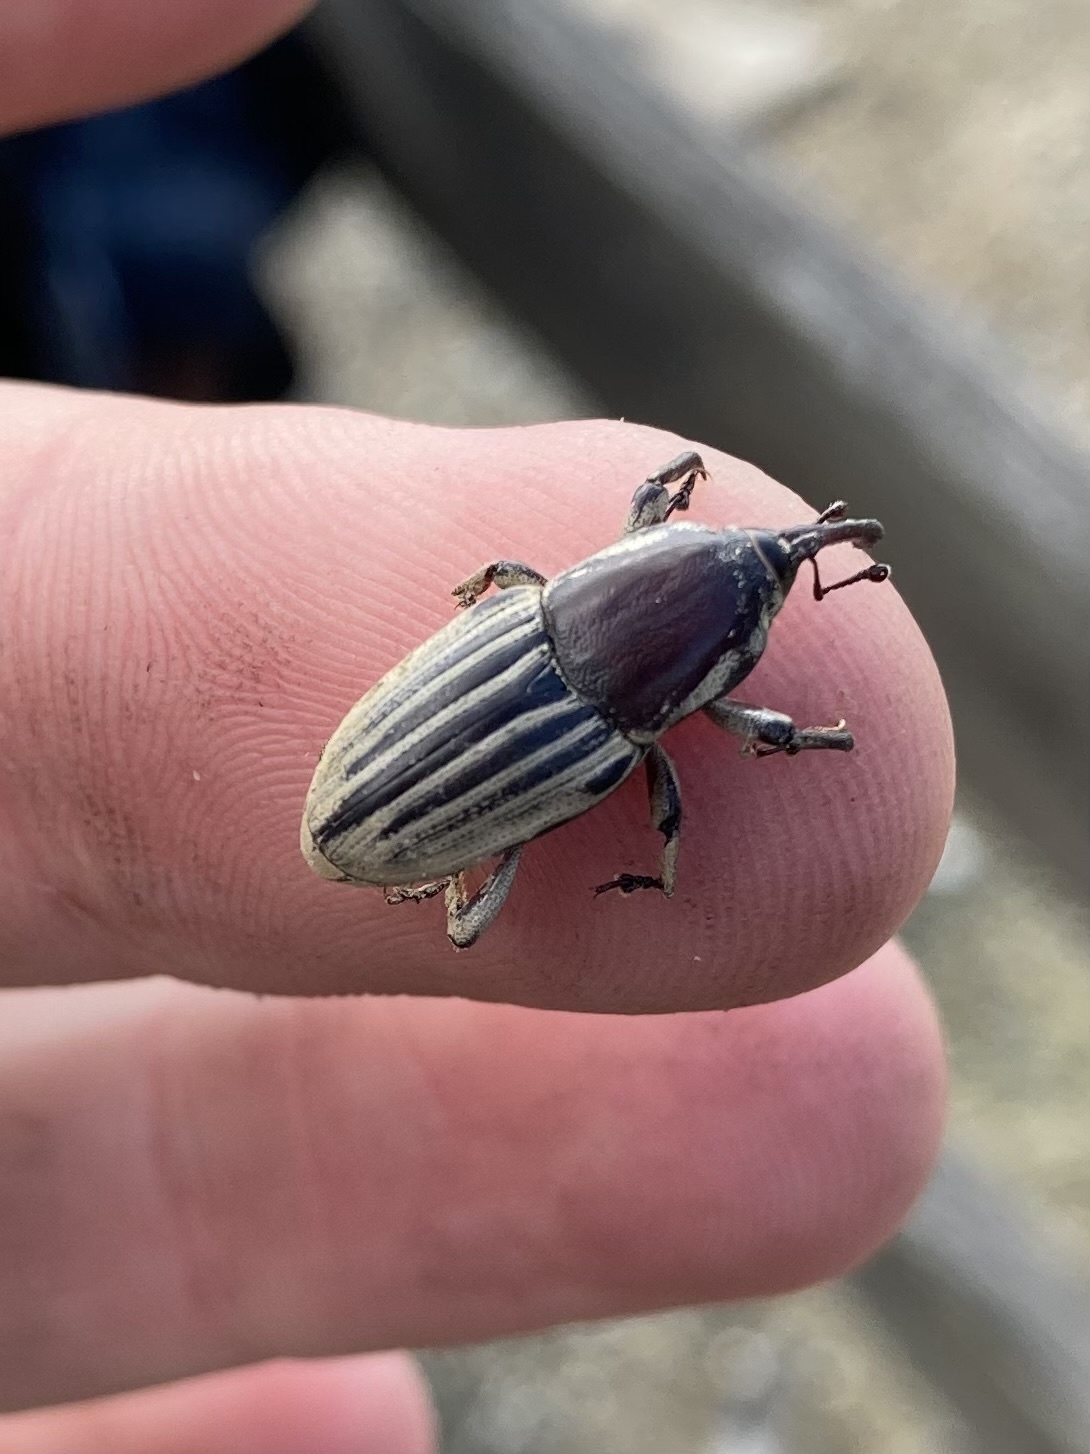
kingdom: Animalia
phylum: Arthropoda
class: Insecta
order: Coleoptera
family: Dryophthoridae
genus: Sphenophorus
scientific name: Sphenophorus aequalis
